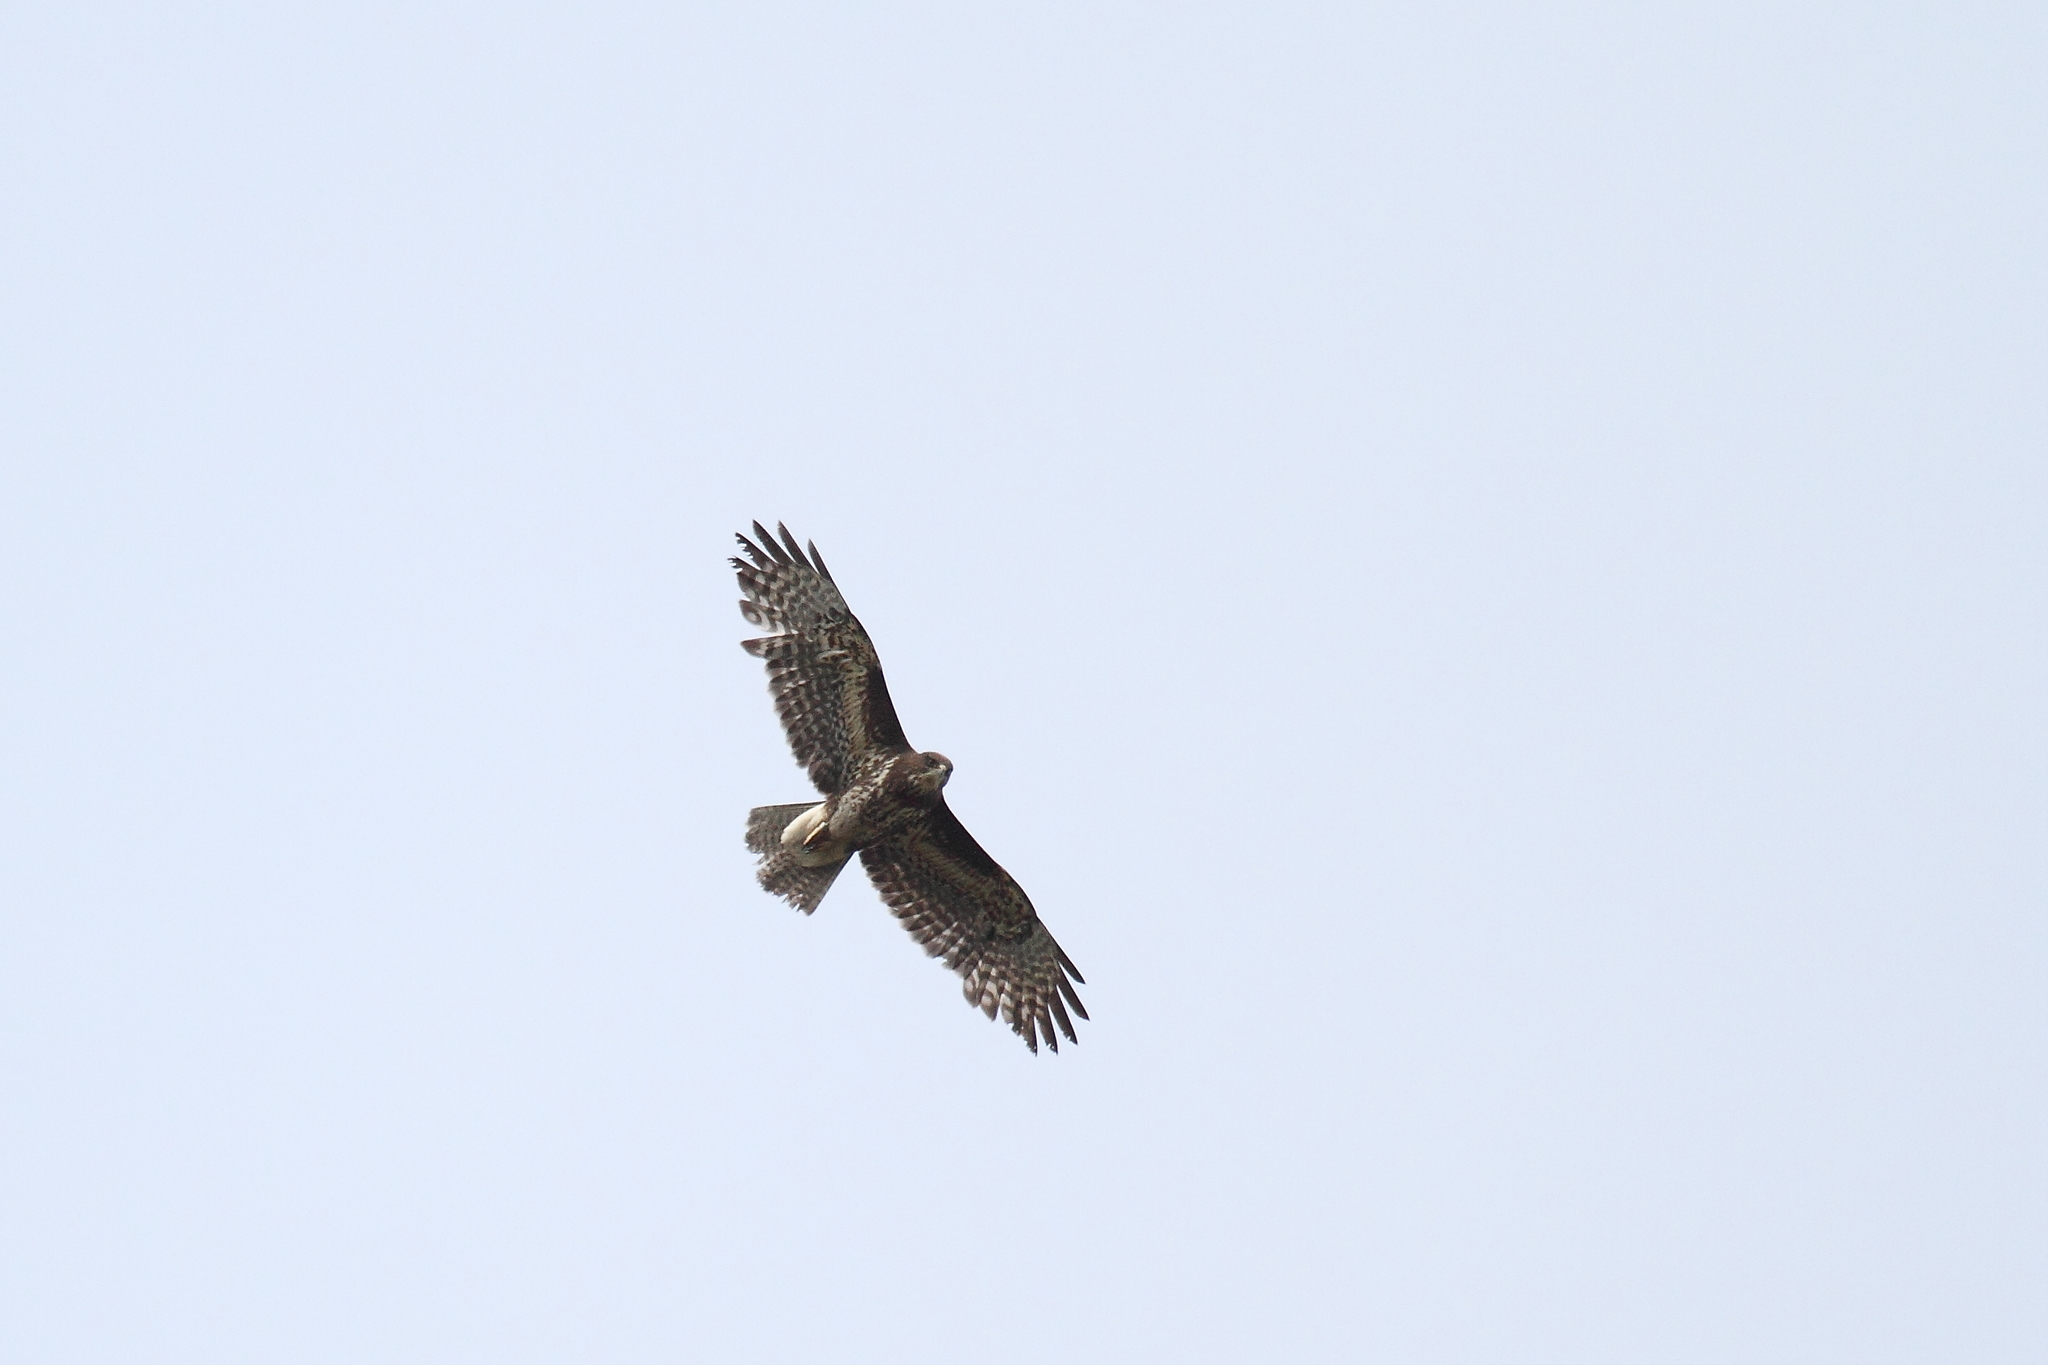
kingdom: Animalia
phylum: Chordata
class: Aves
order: Accipitriformes
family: Accipitridae
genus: Buteo
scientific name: Buteo buteo
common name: Common buzzard
